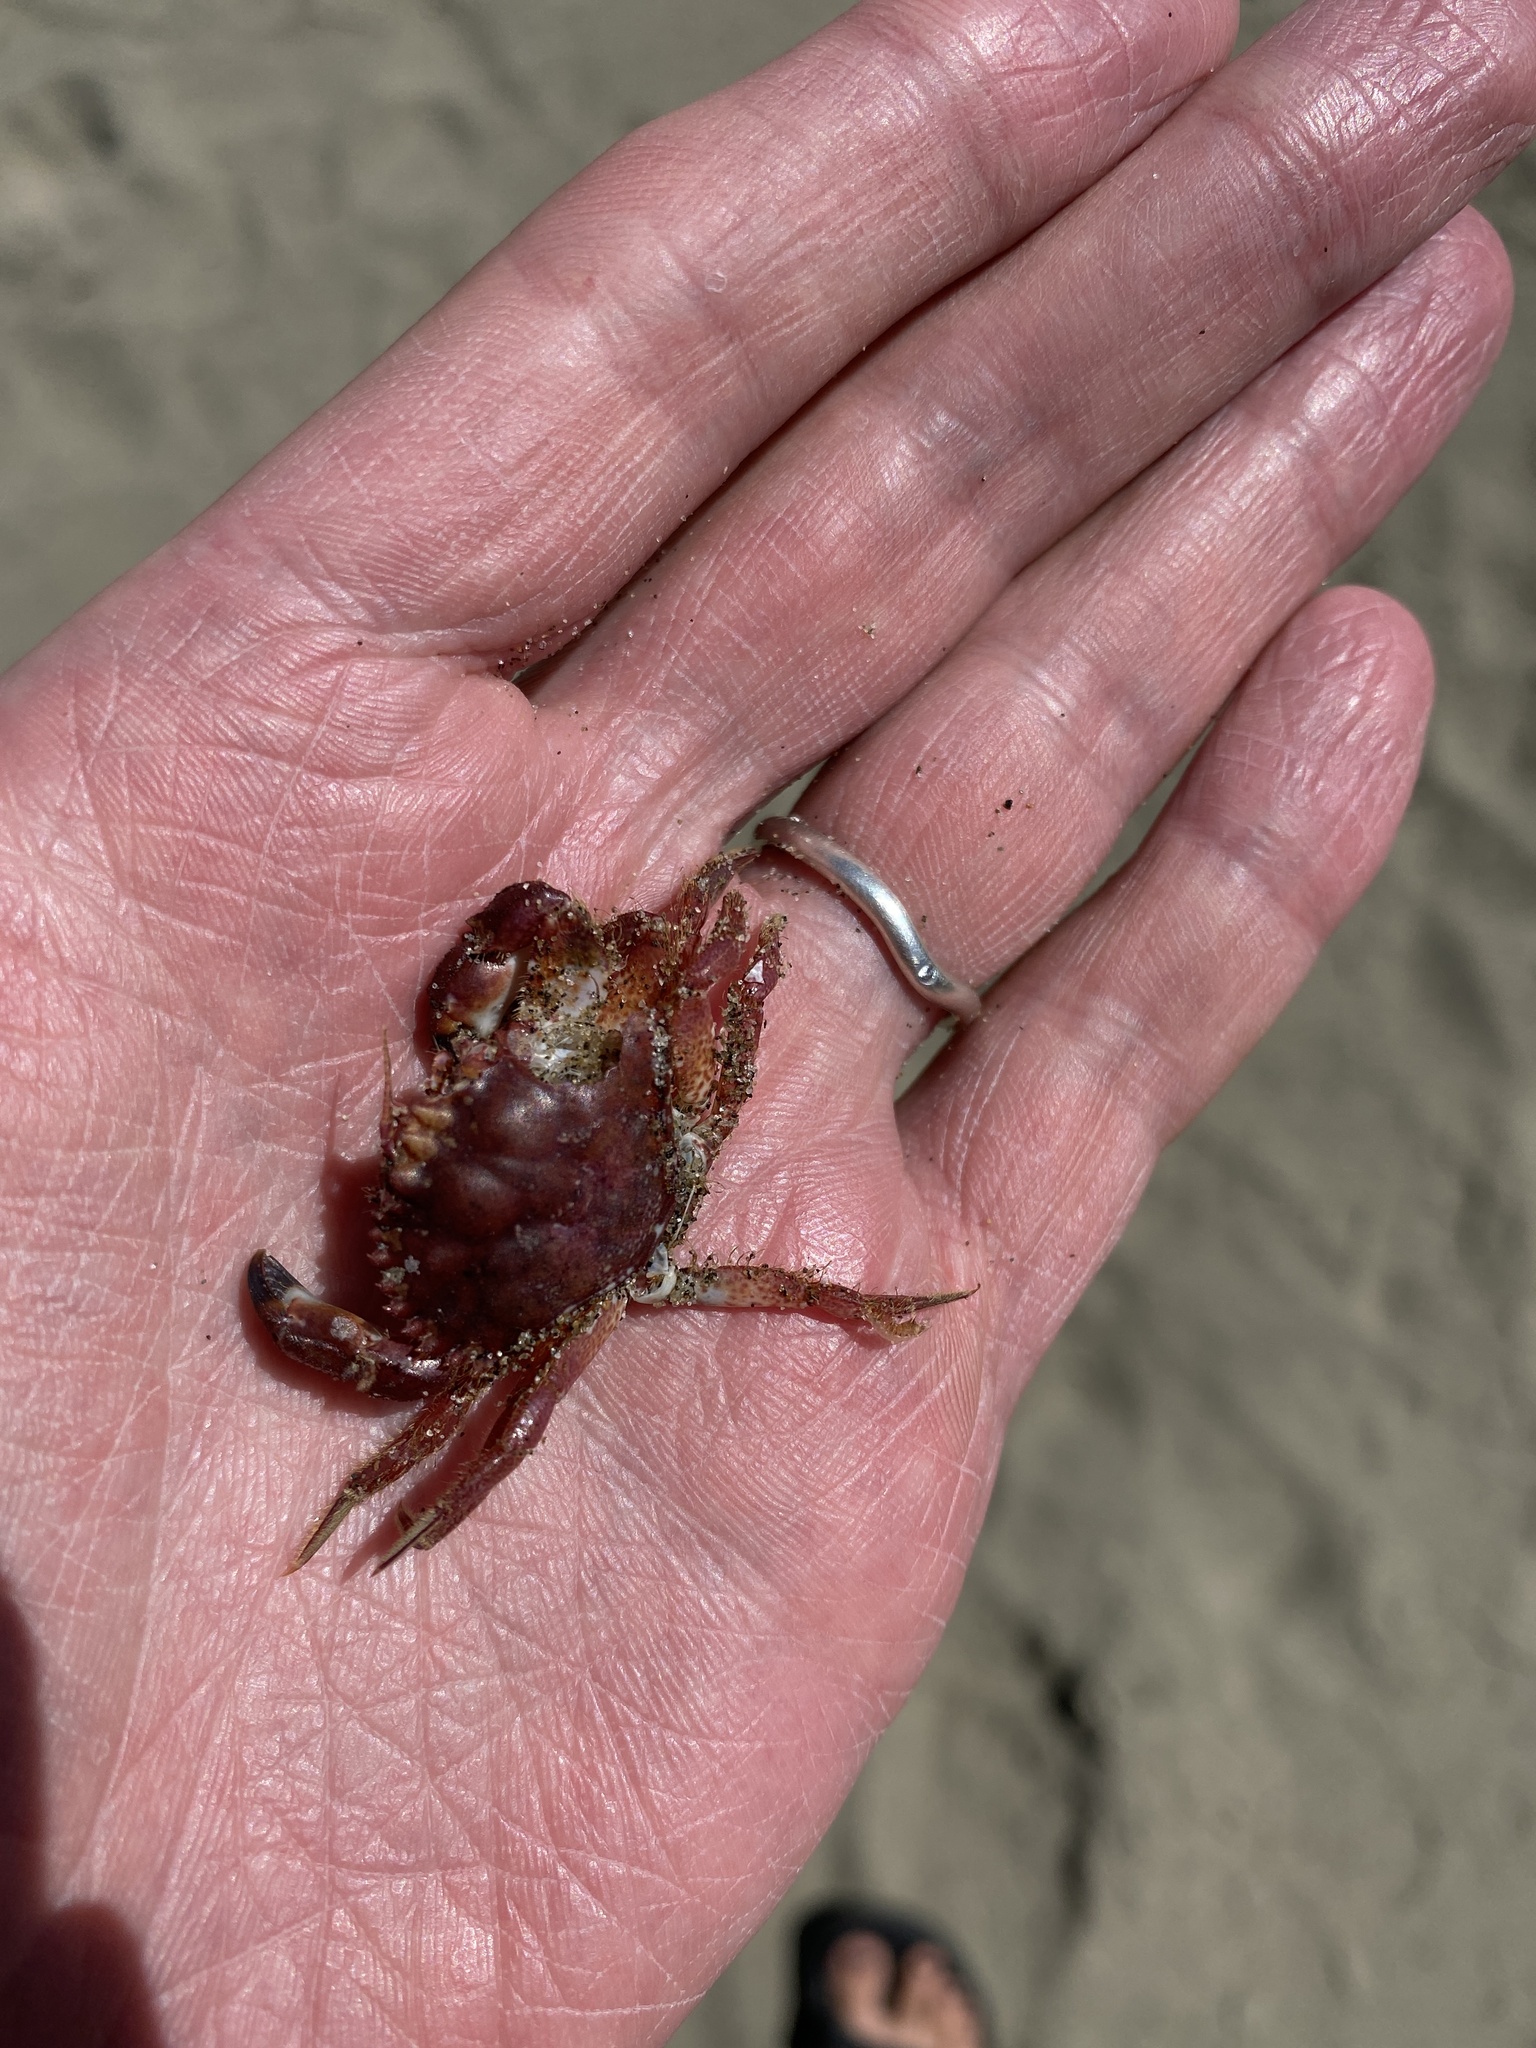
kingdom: Animalia
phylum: Arthropoda
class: Malacostraca
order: Decapoda
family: Cancridae
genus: Romaleon
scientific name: Romaleon antennarium
